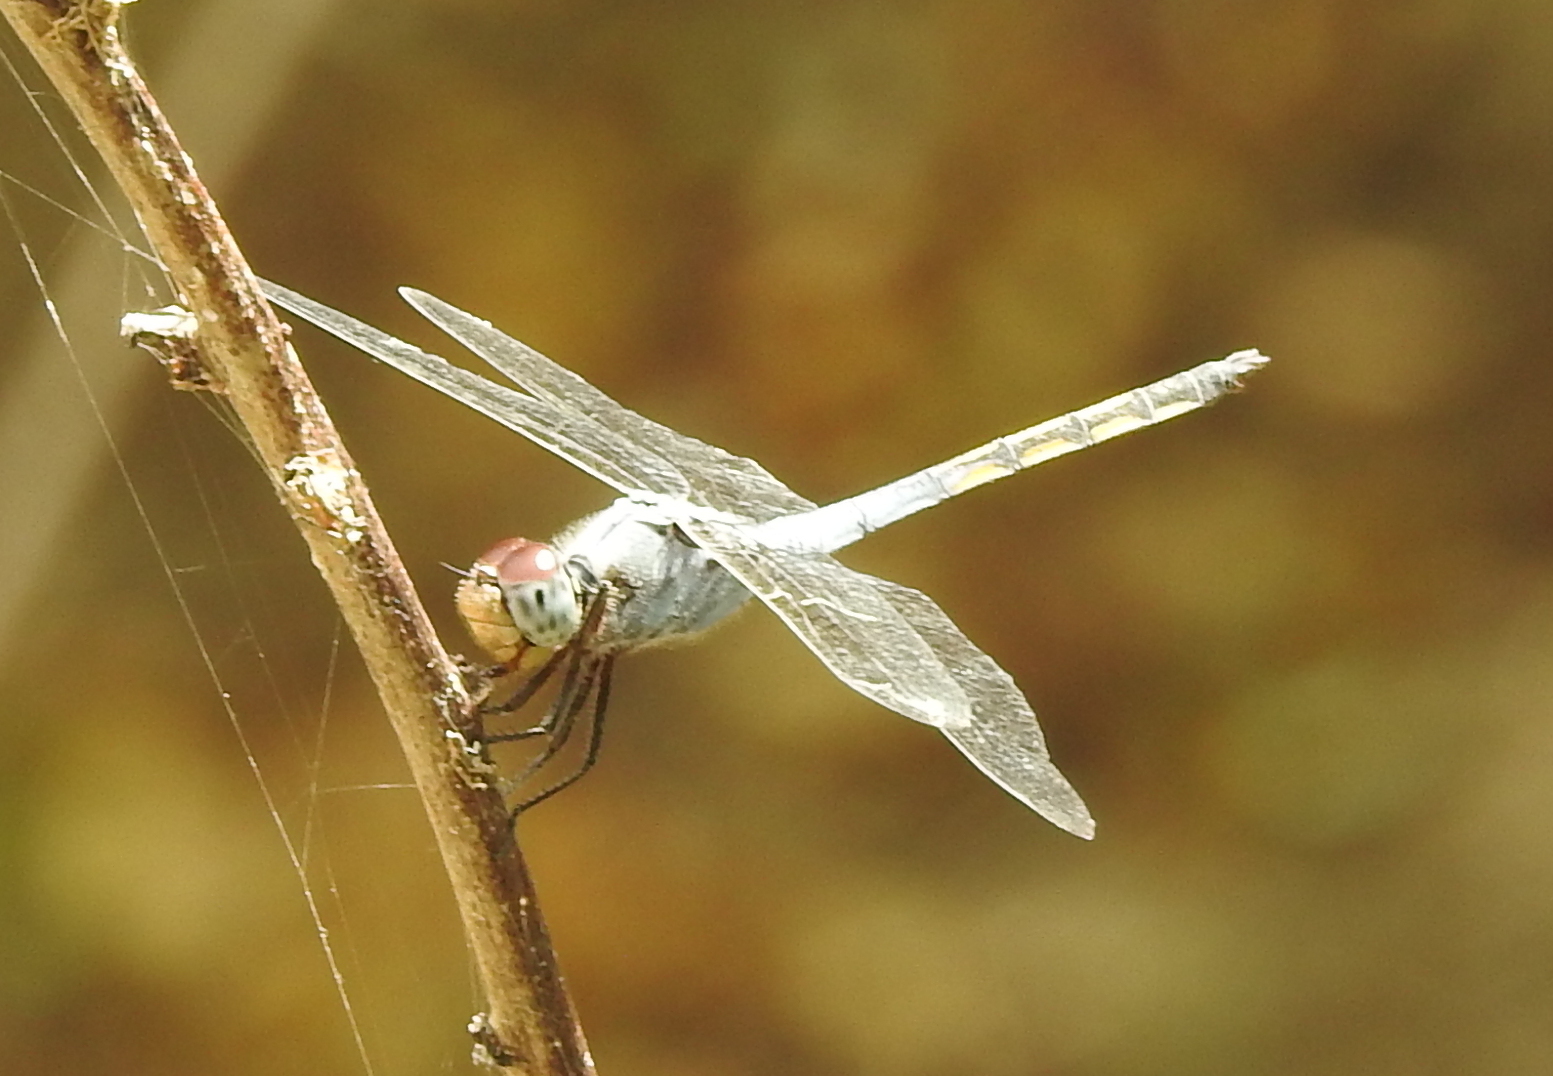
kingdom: Animalia
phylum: Arthropoda
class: Insecta
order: Odonata
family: Libellulidae
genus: Potamarcha
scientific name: Potamarcha congener
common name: Blue chaser
